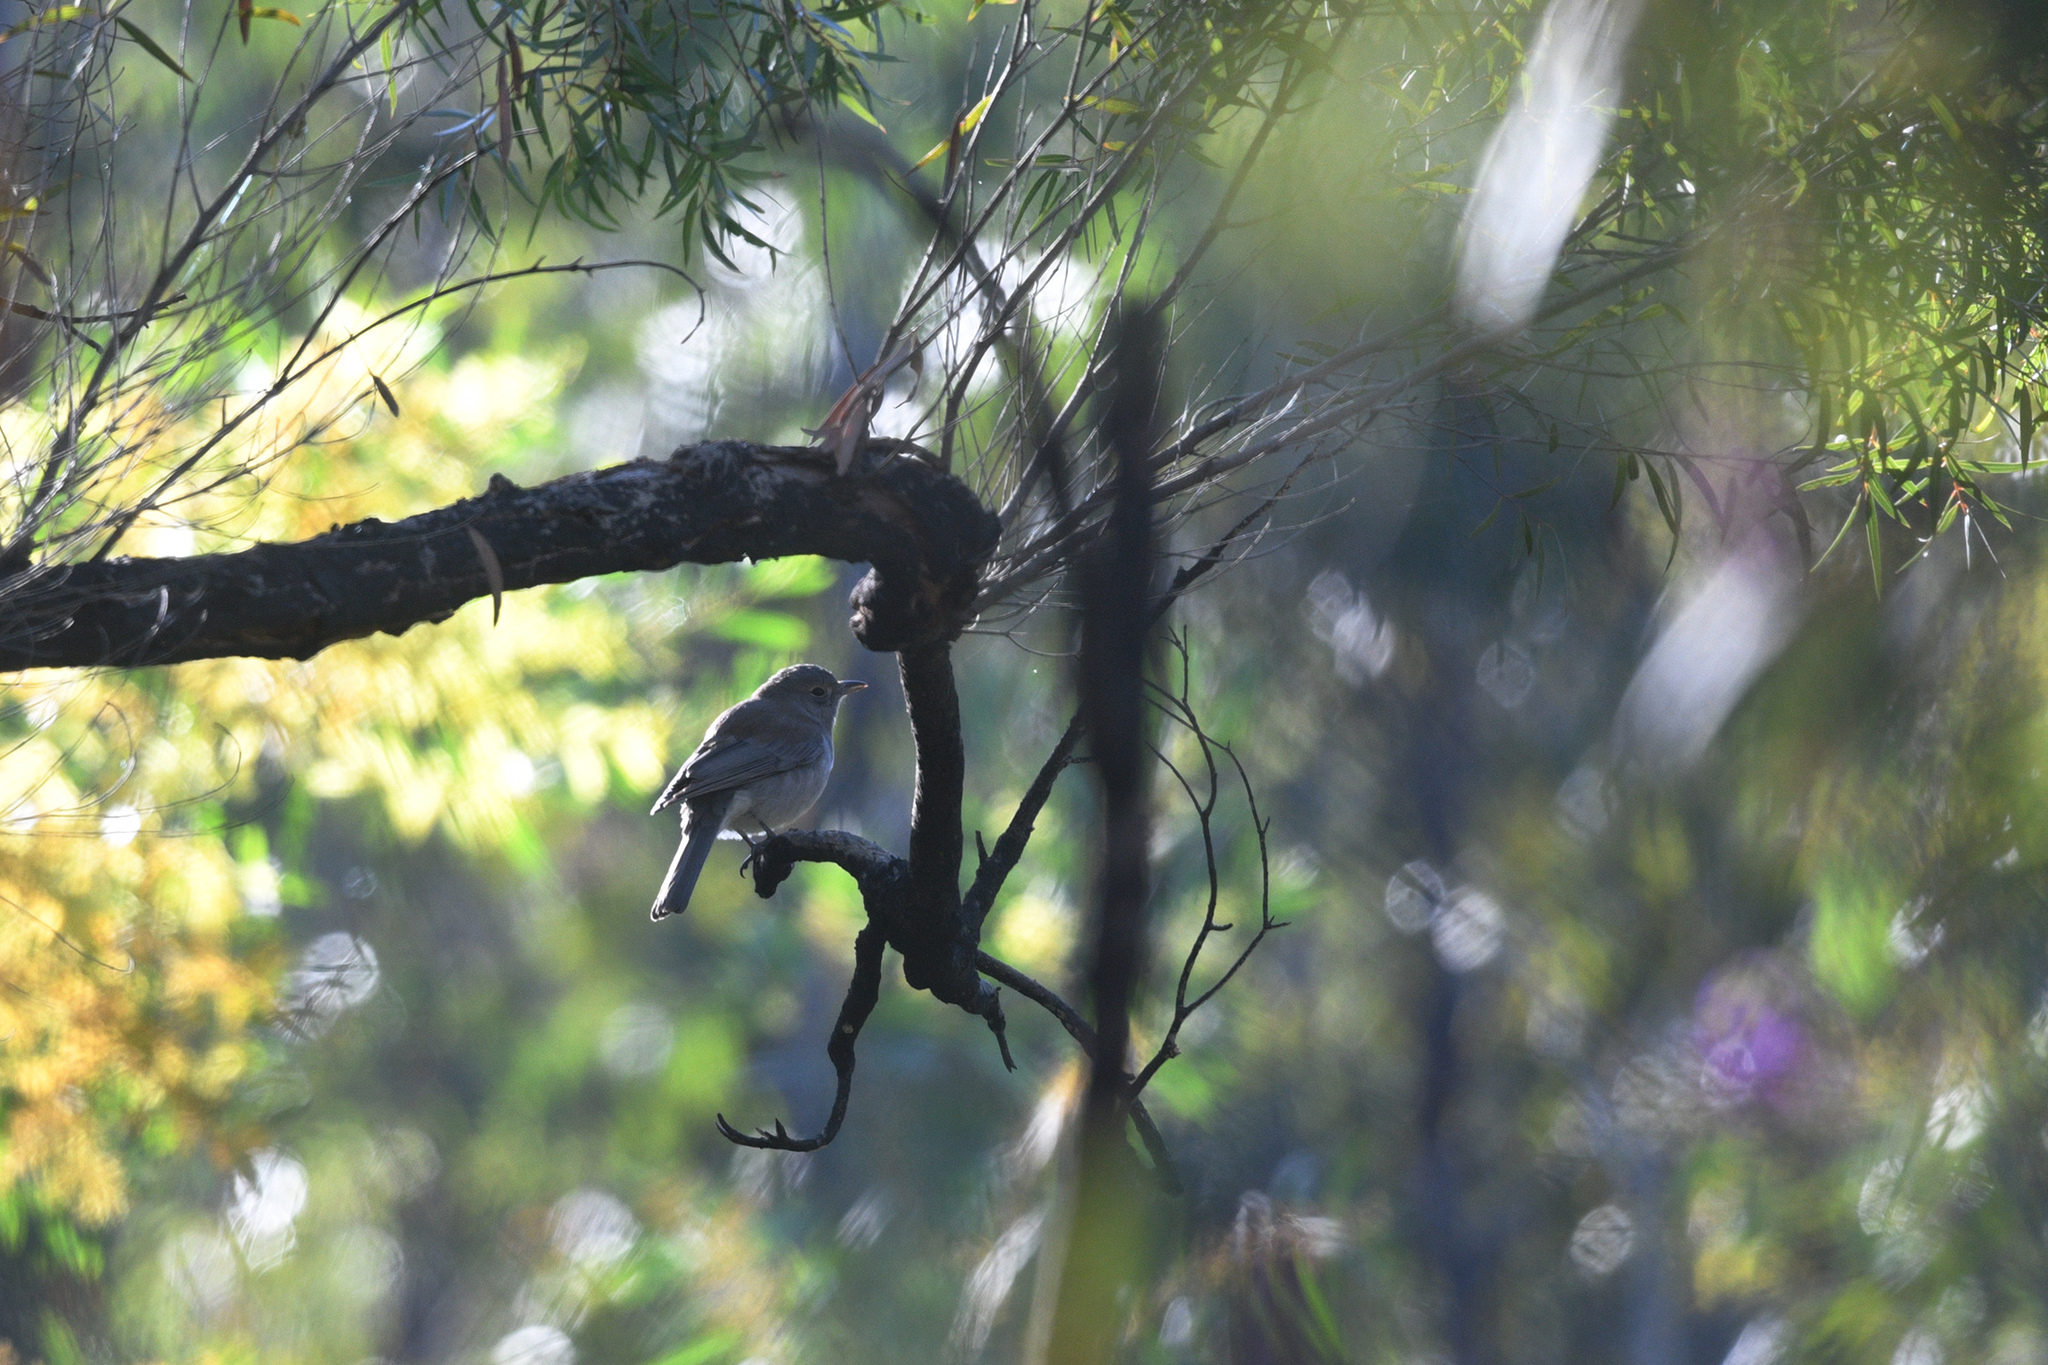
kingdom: Animalia
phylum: Chordata
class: Aves
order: Passeriformes
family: Pachycephalidae
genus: Colluricincla
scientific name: Colluricincla harmonica
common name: Grey shrikethrush
